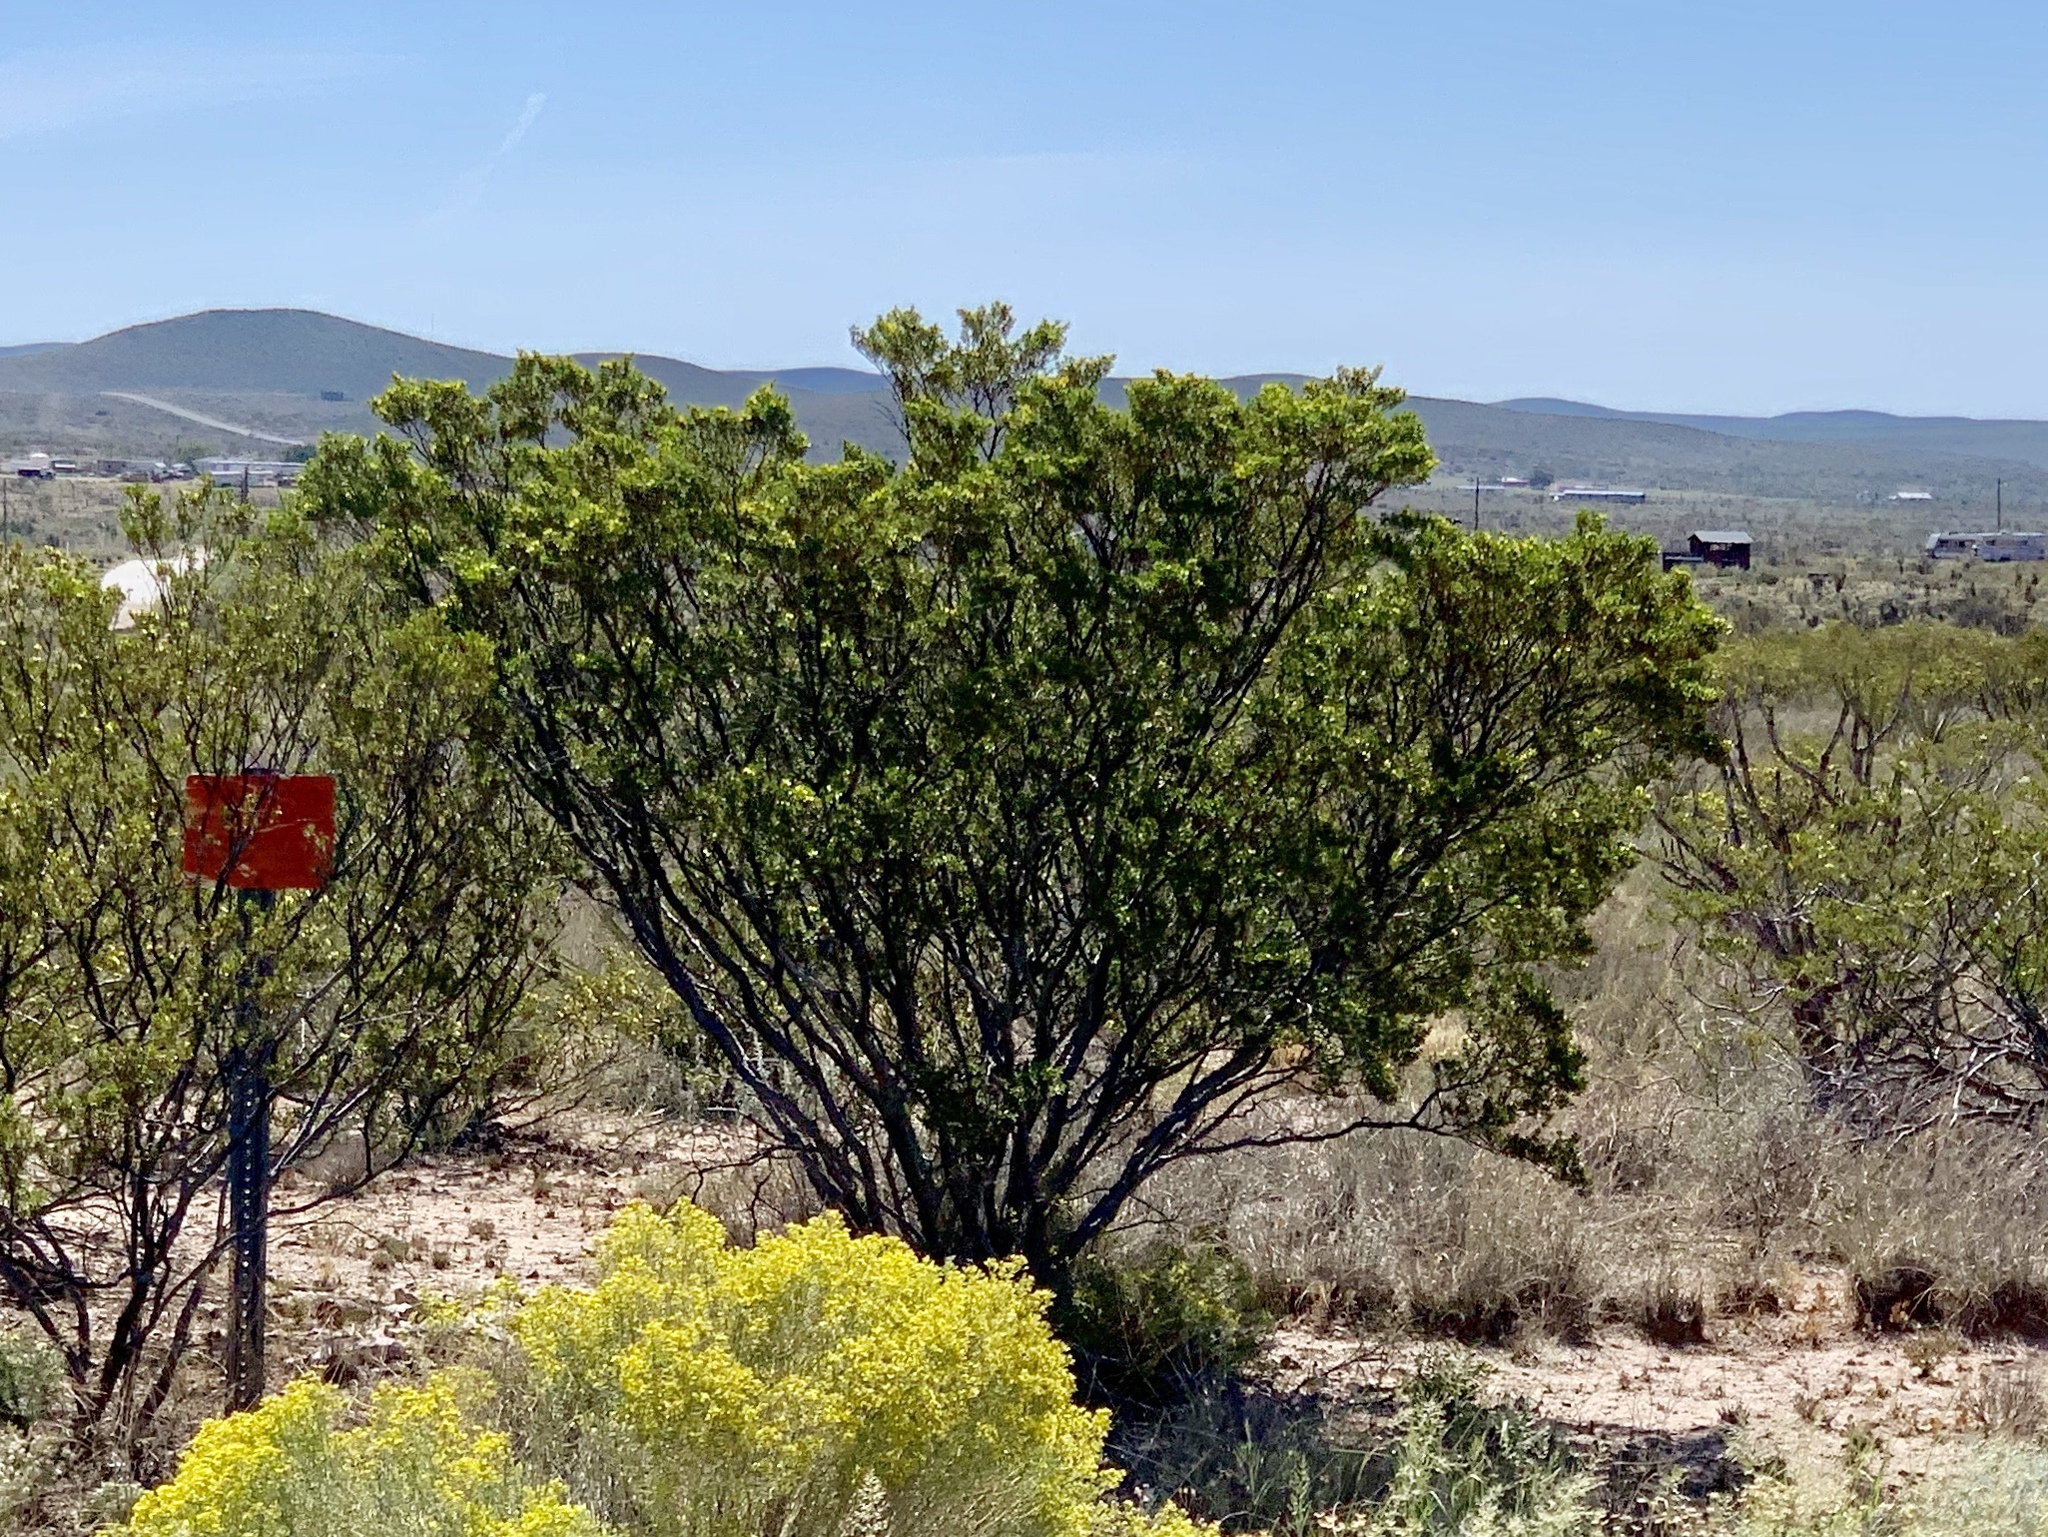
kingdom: Plantae
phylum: Tracheophyta
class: Magnoliopsida
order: Zygophyllales
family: Zygophyllaceae
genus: Larrea
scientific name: Larrea tridentata
